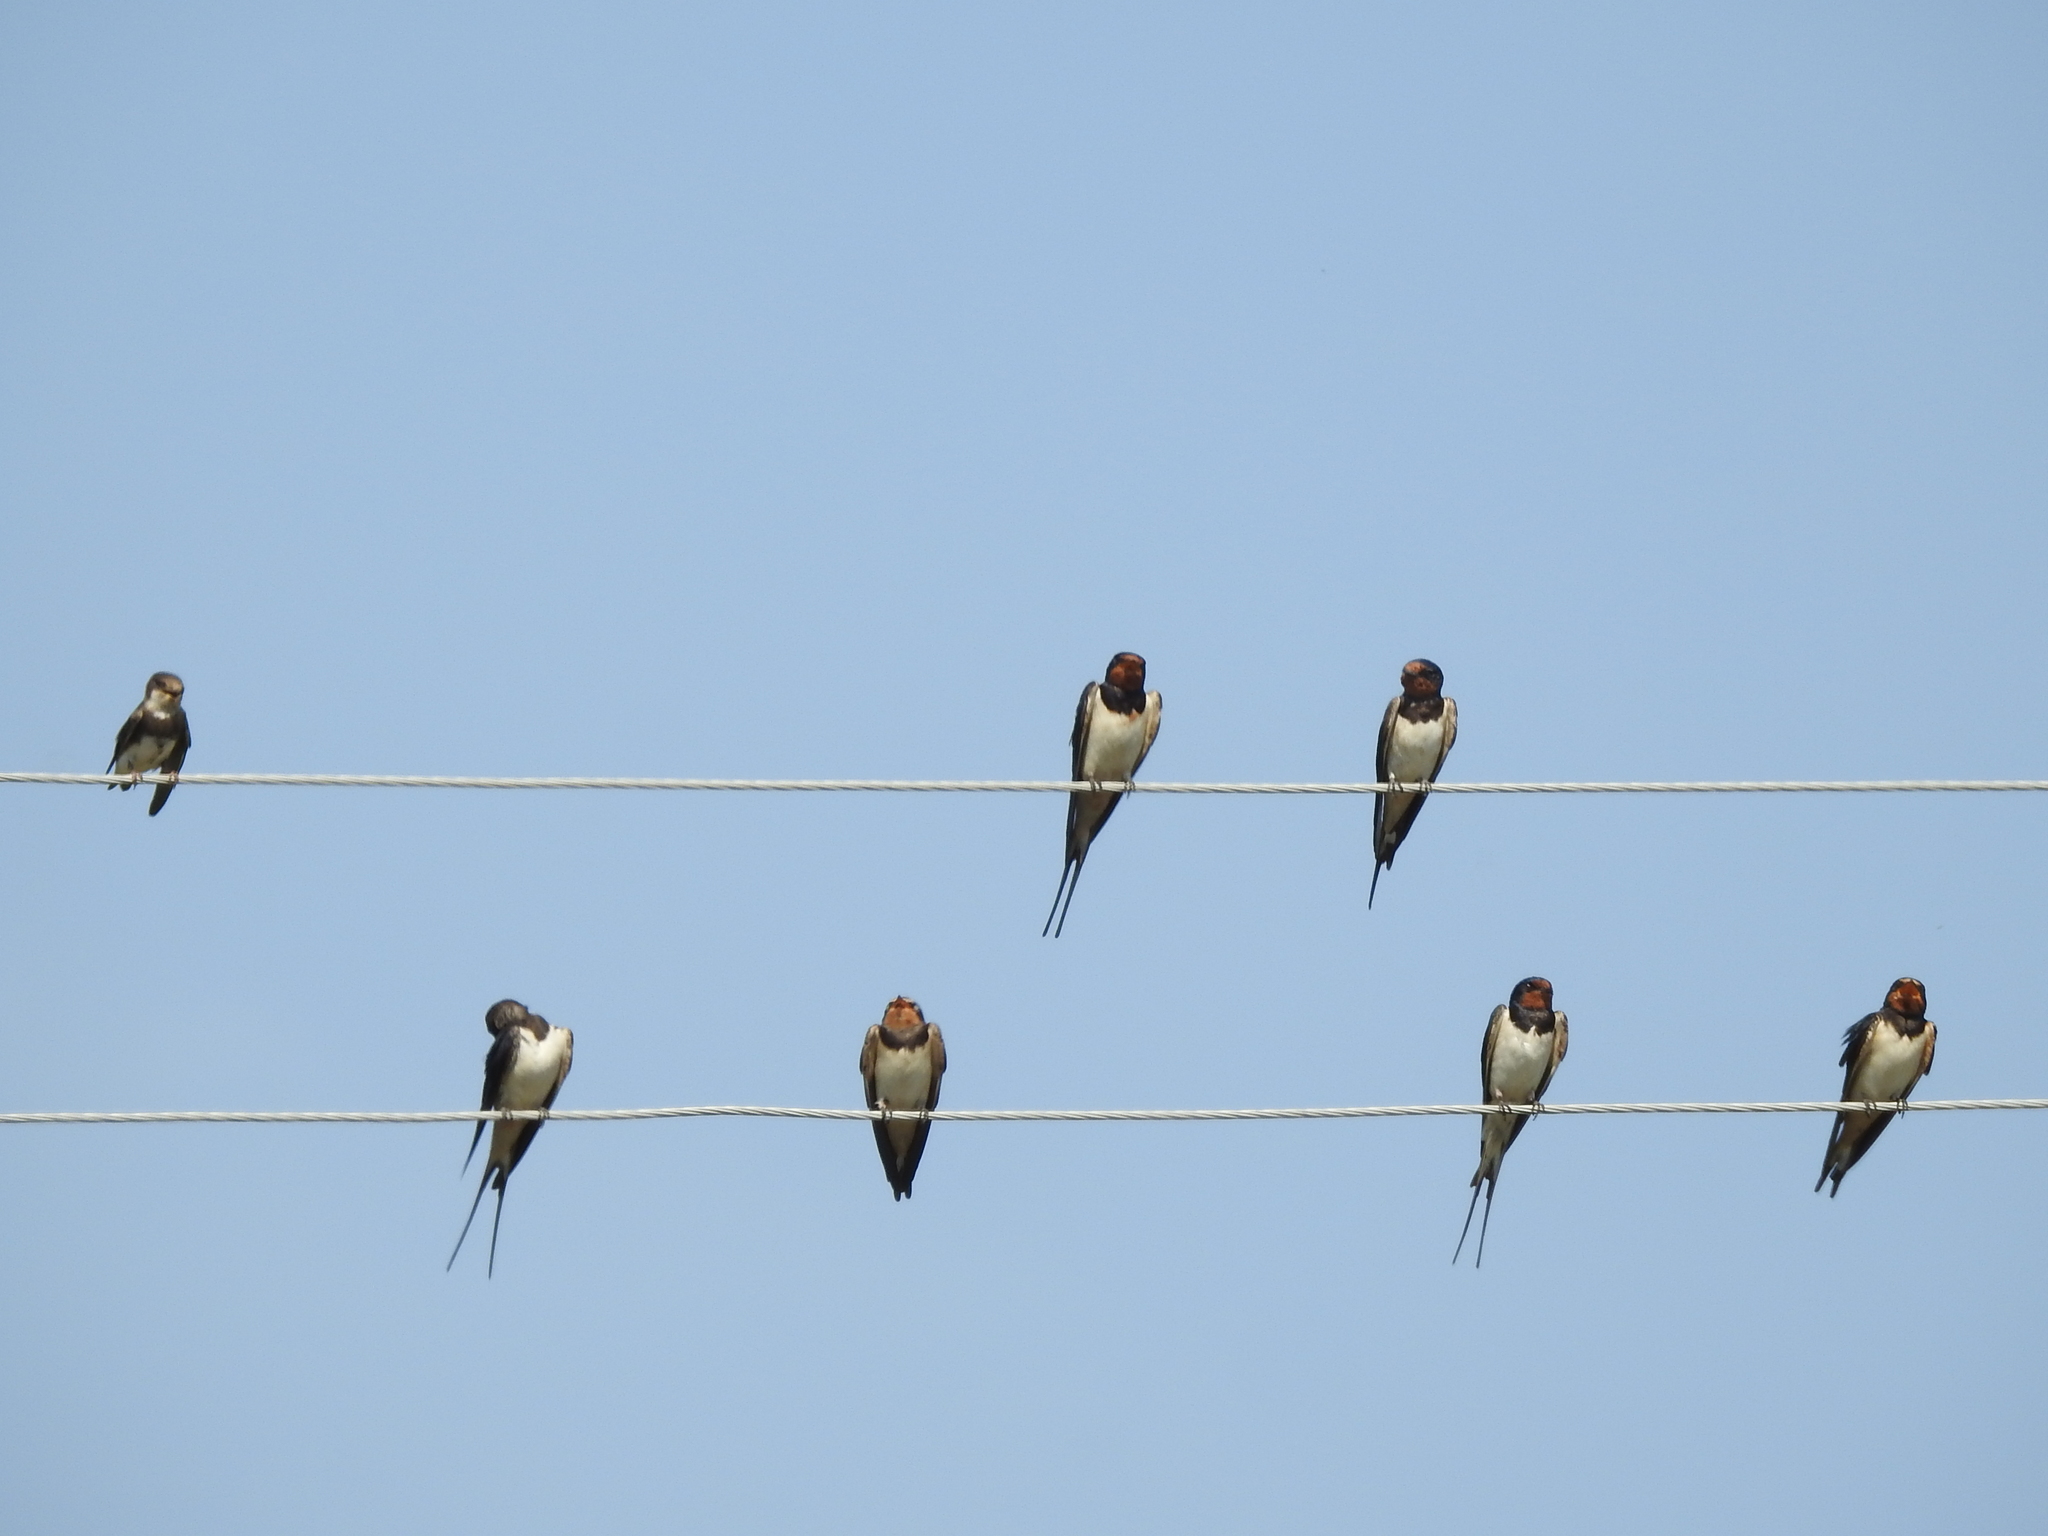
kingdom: Animalia
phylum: Chordata
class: Aves
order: Passeriformes
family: Hirundinidae
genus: Hirundo
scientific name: Hirundo rustica
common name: Barn swallow
